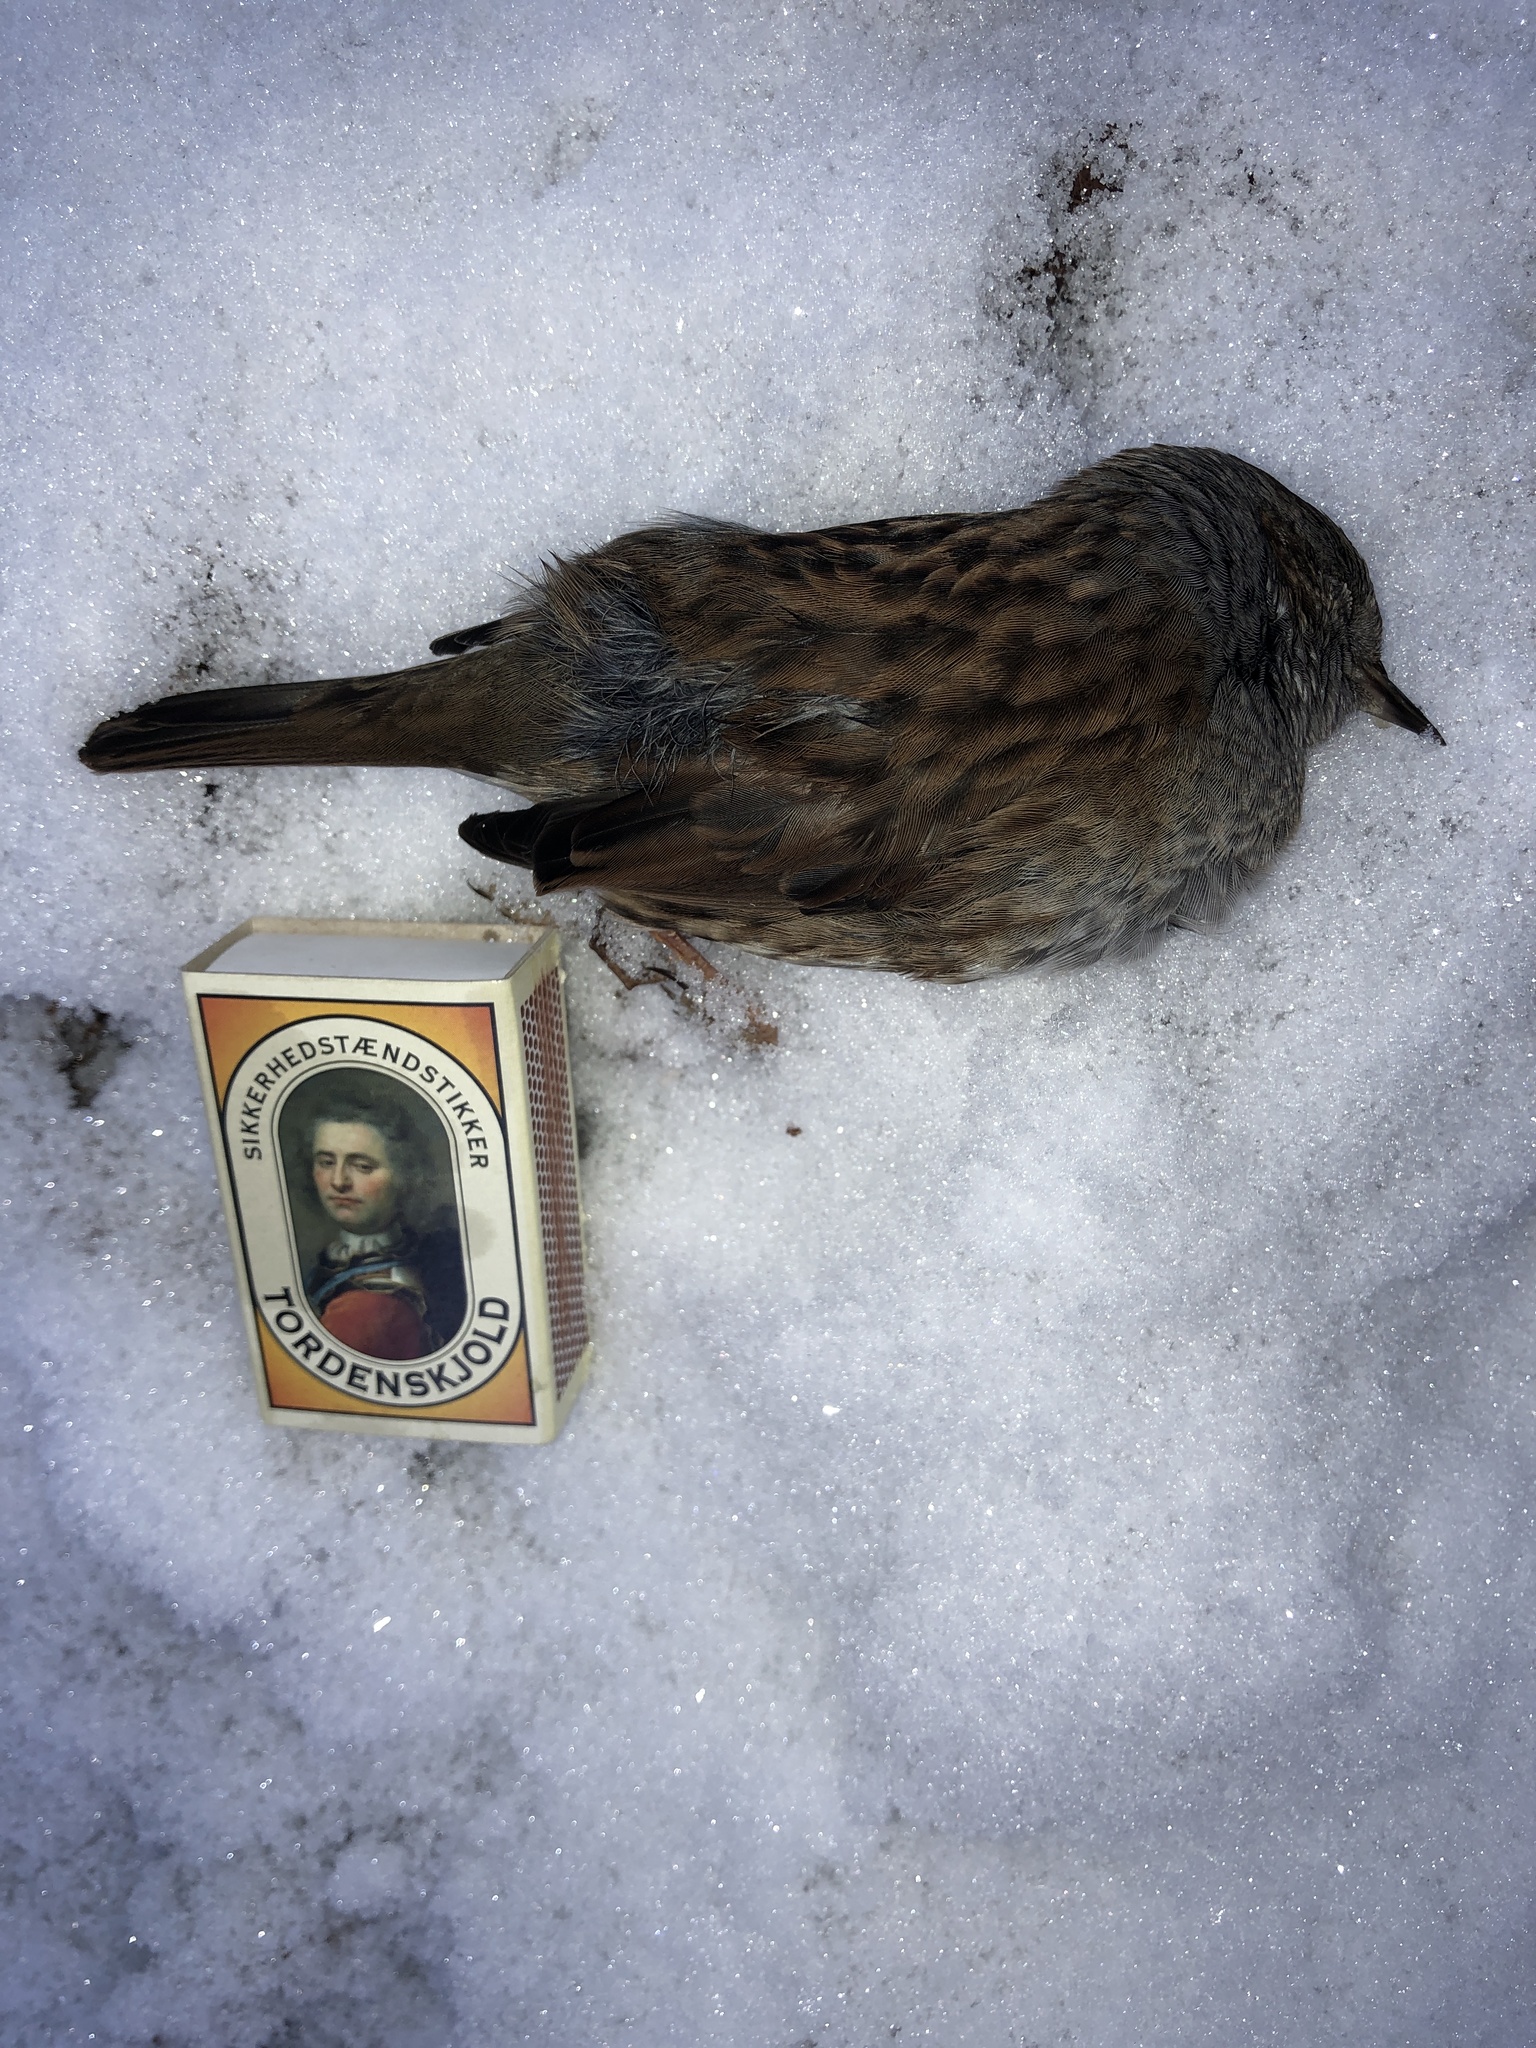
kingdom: Animalia
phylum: Chordata
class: Aves
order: Passeriformes
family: Prunellidae
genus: Prunella
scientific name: Prunella modularis
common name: Dunnock
